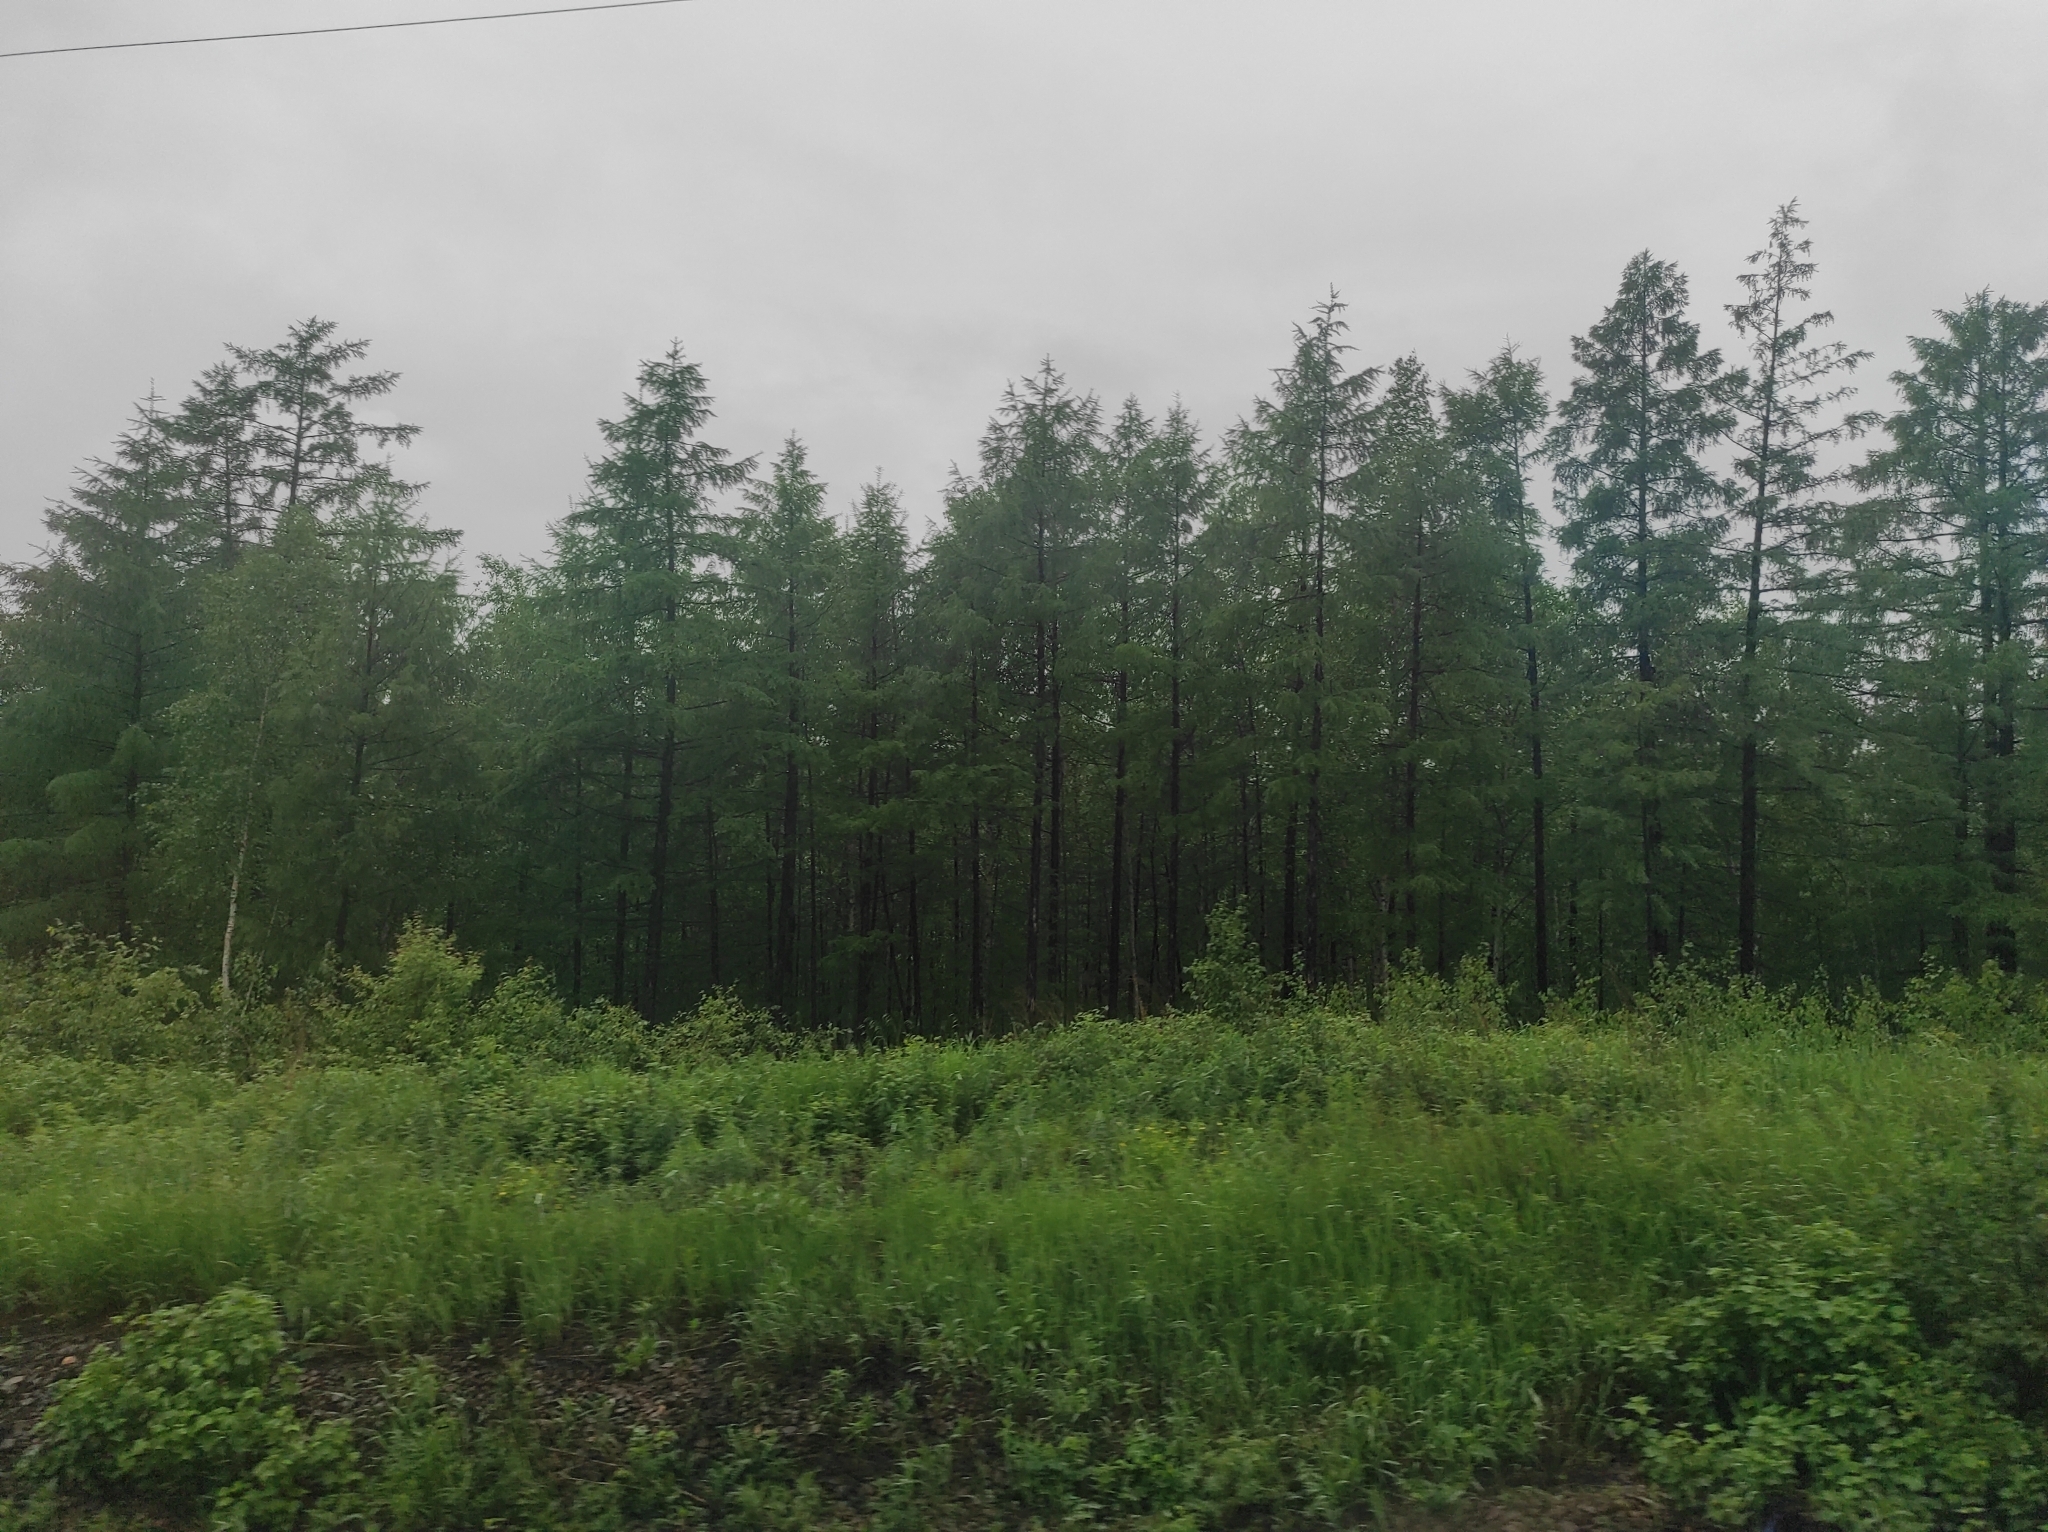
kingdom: Plantae
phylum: Tracheophyta
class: Pinopsida
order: Pinales
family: Pinaceae
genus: Larix
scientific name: Larix gmelinii
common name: Dahurian larch
